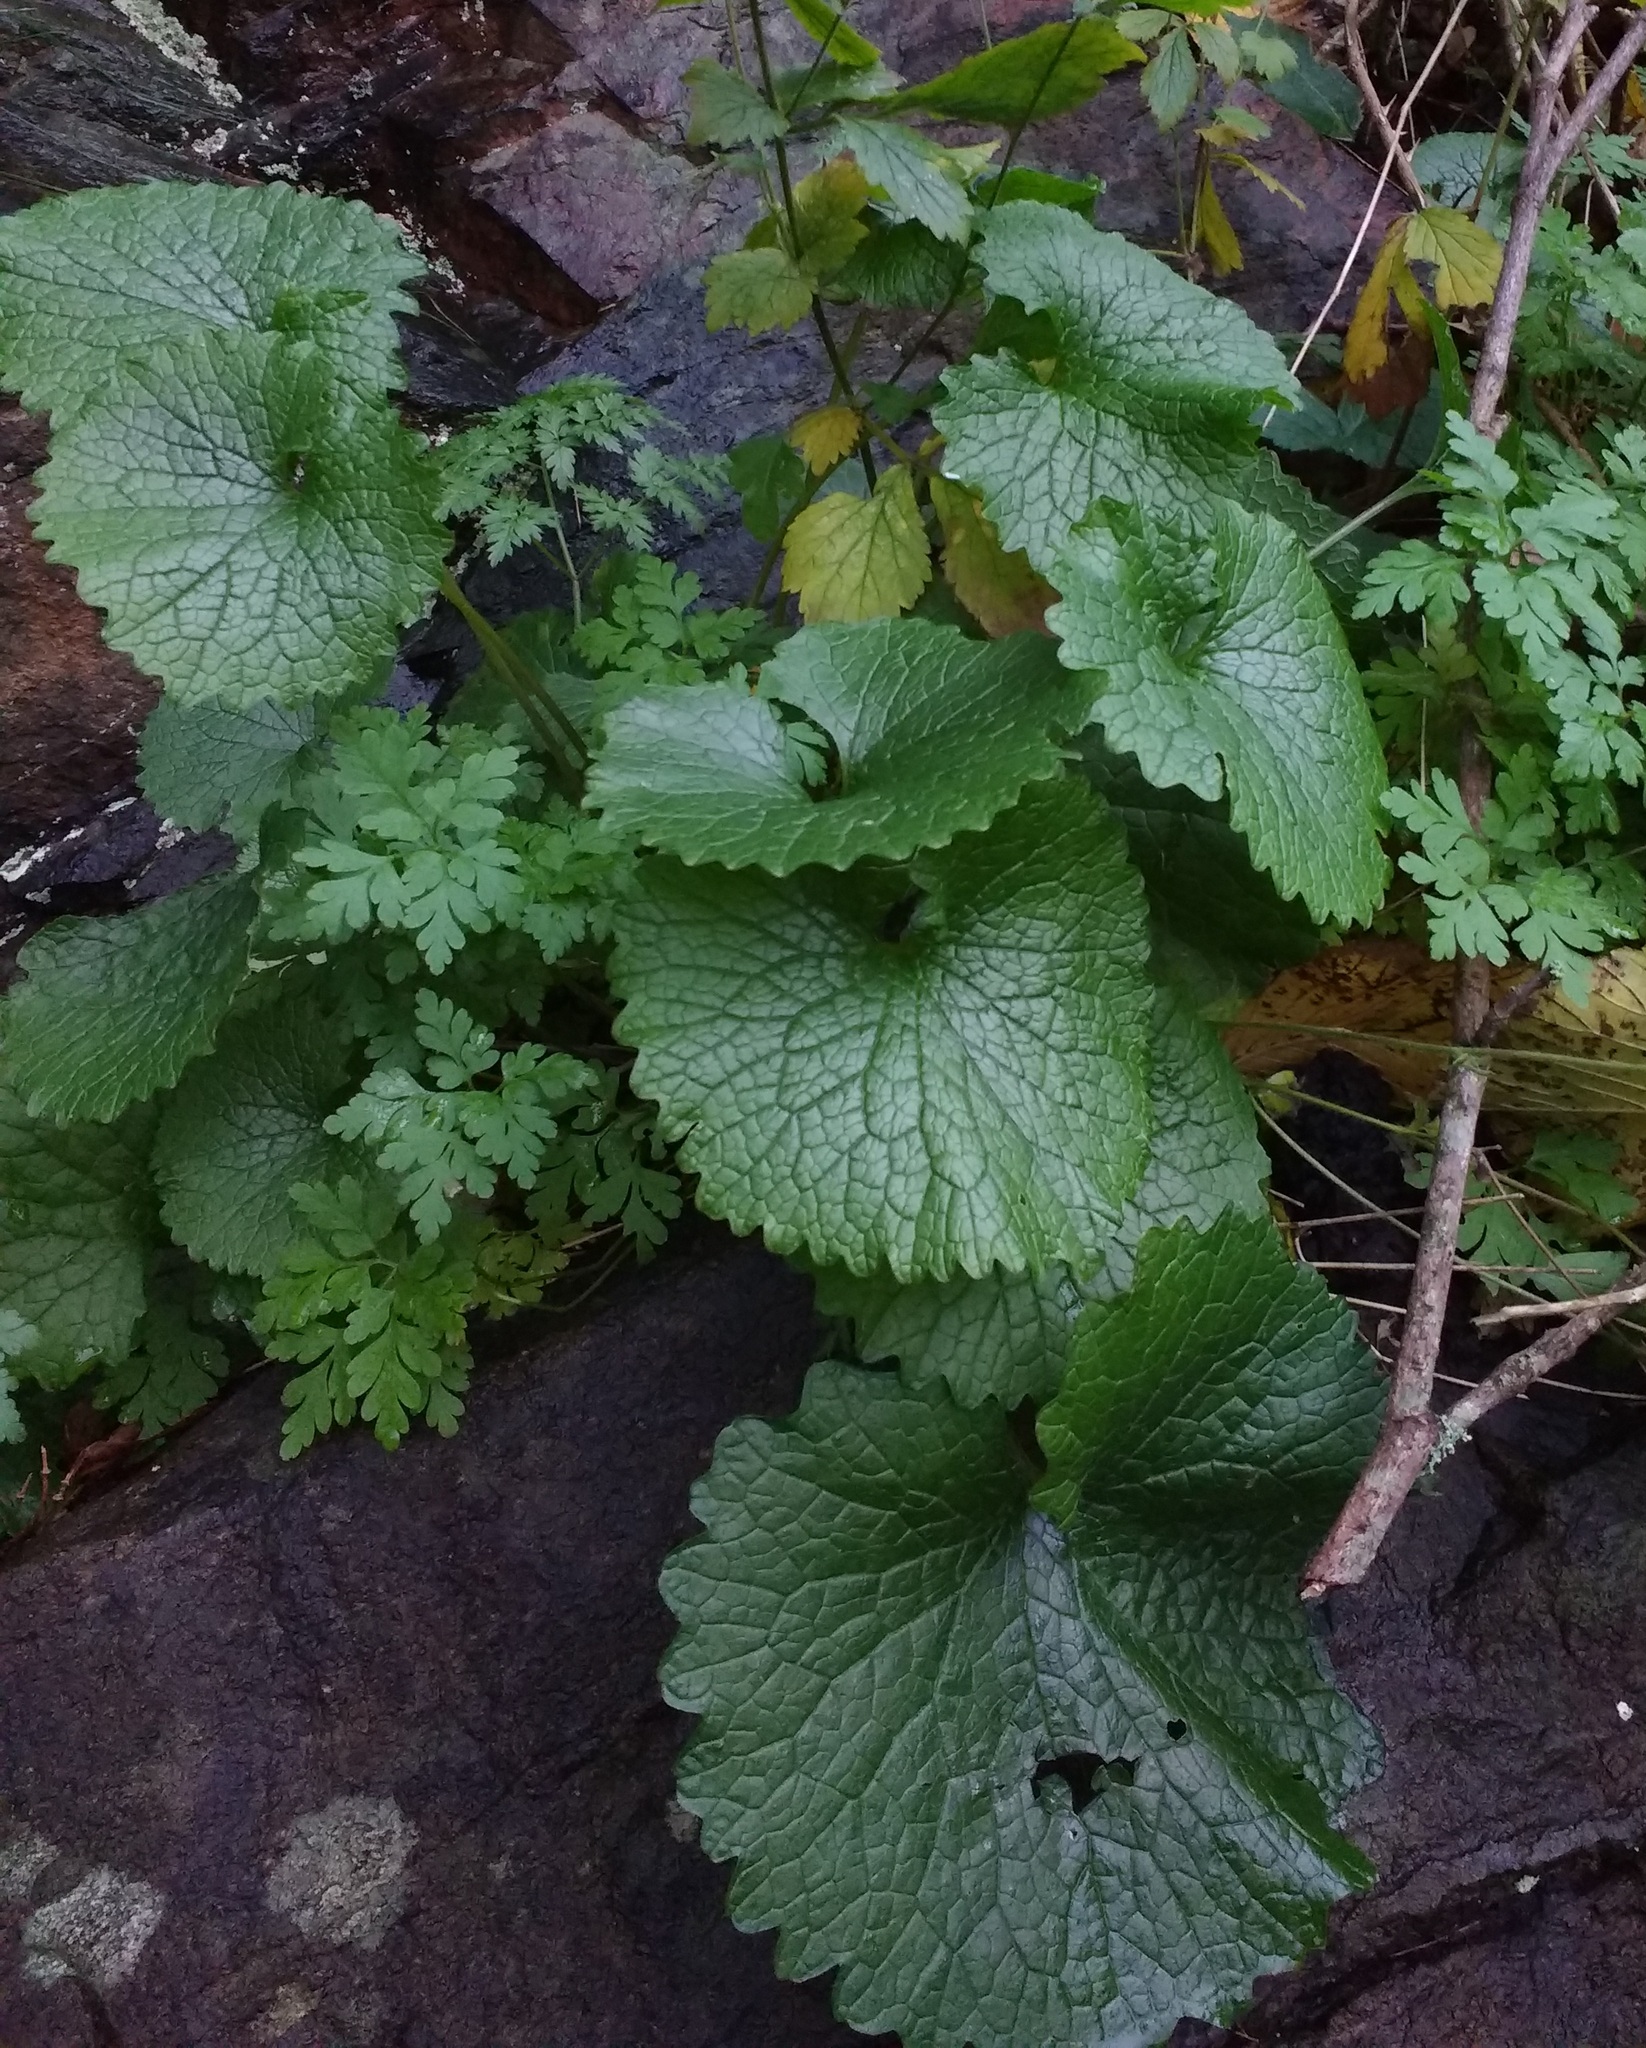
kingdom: Plantae
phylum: Tracheophyta
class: Magnoliopsida
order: Brassicales
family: Brassicaceae
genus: Alliaria
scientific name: Alliaria petiolata
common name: Garlic mustard
